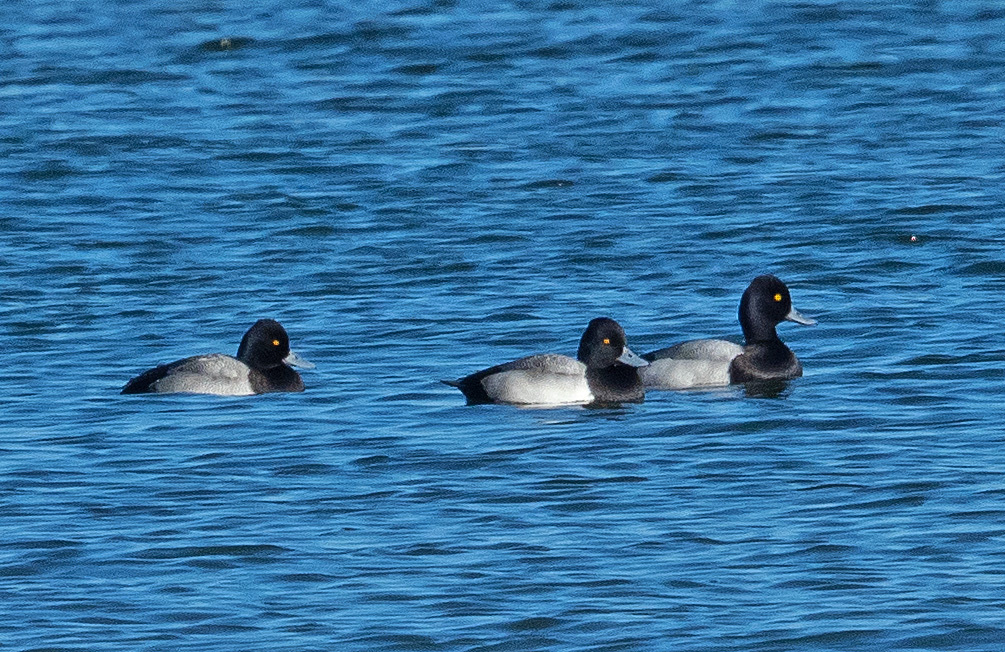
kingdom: Animalia
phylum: Chordata
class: Aves
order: Anseriformes
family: Anatidae
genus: Aythya
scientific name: Aythya affinis
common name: Lesser scaup
